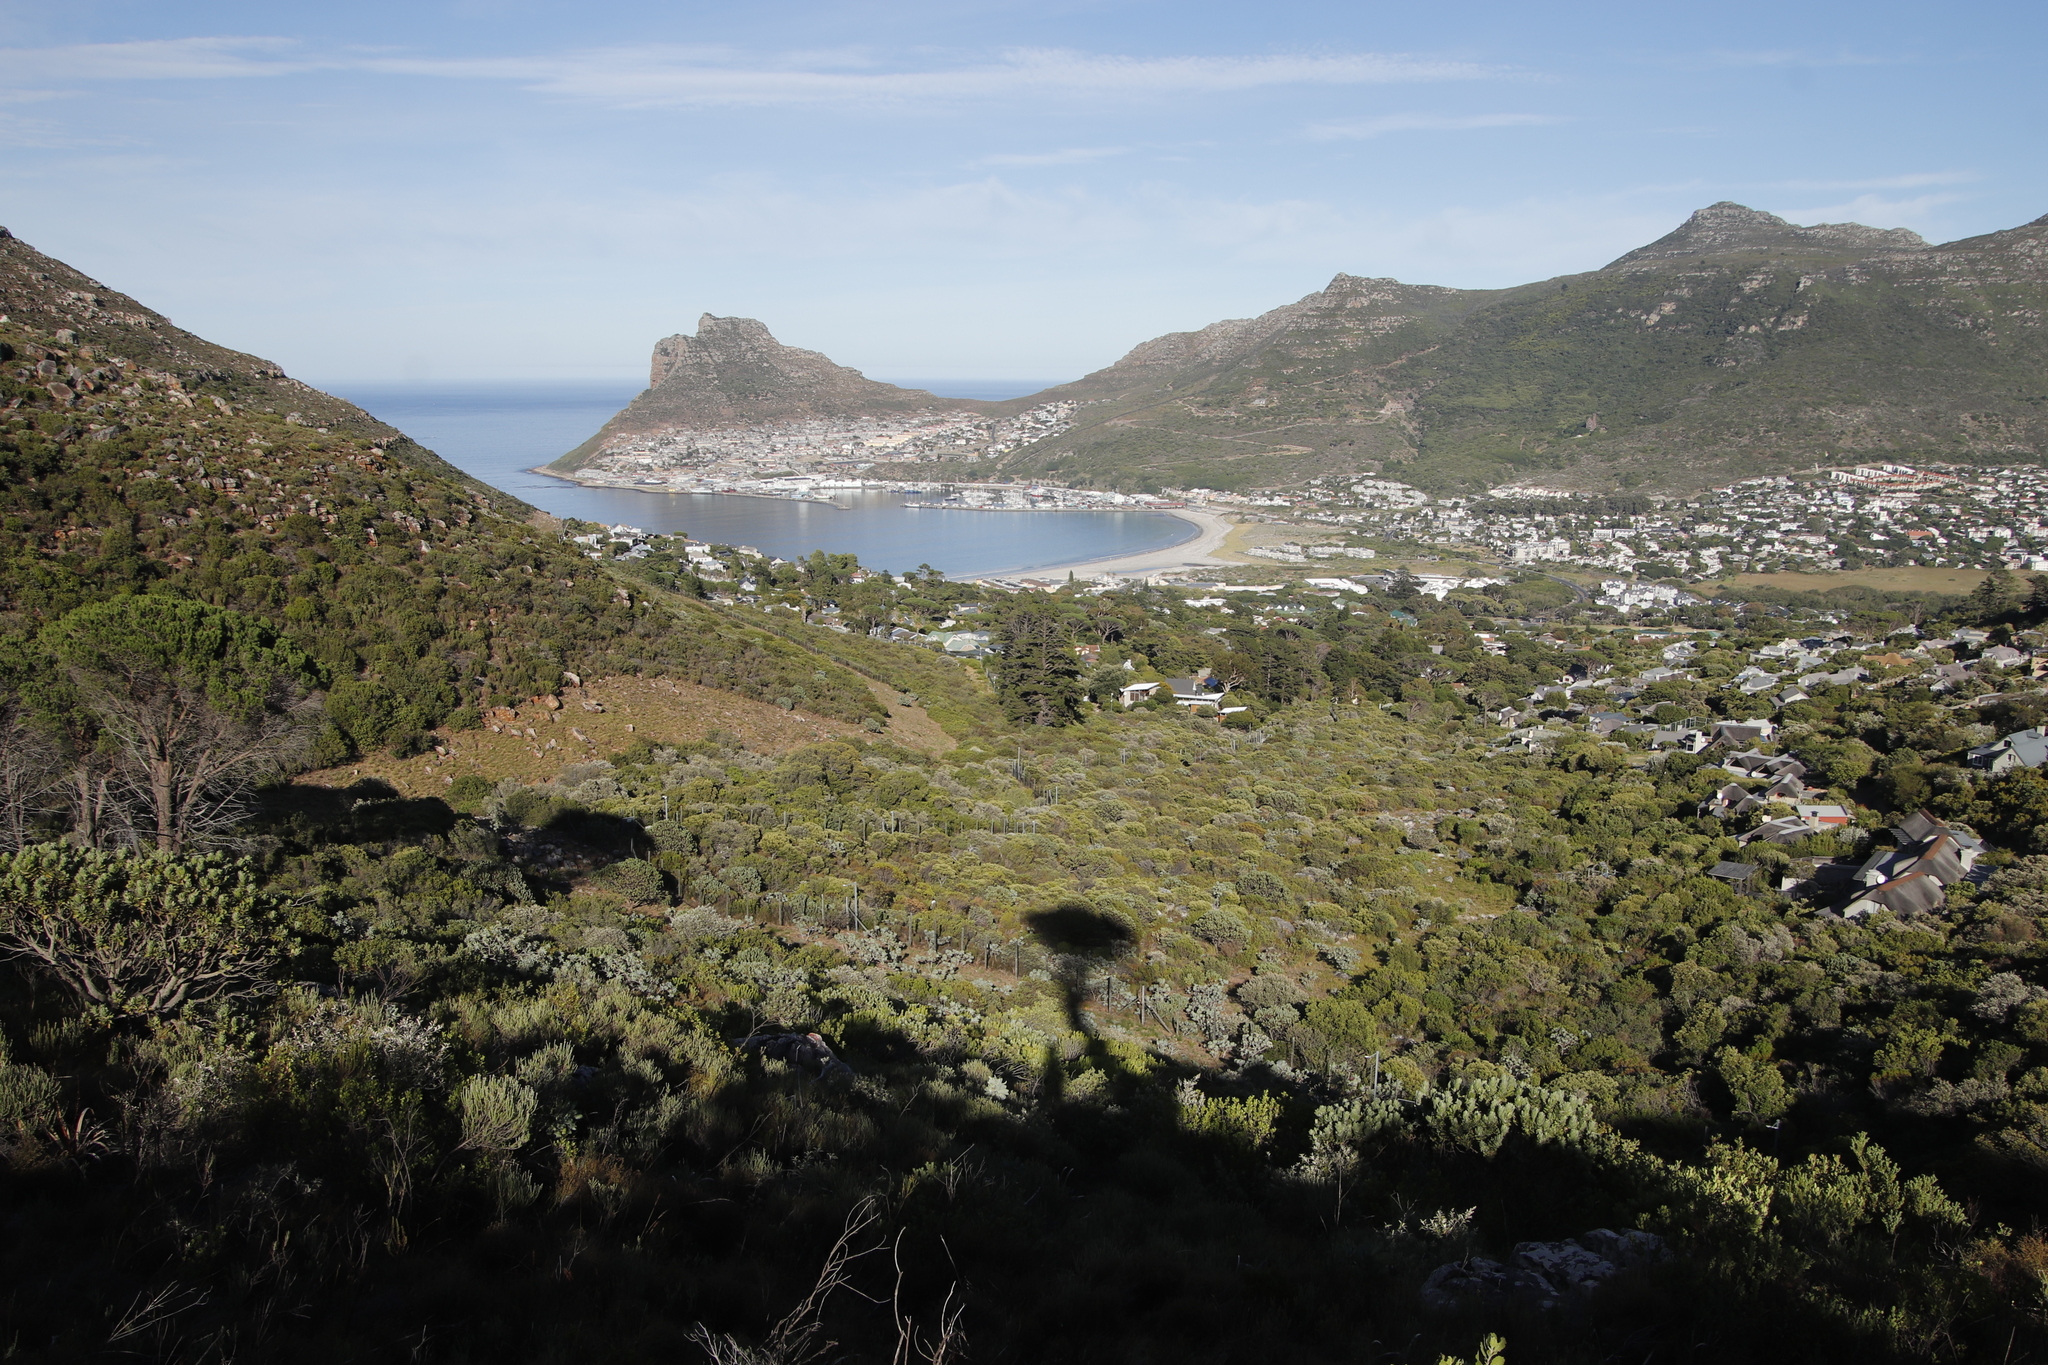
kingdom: Plantae
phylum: Tracheophyta
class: Pinopsida
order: Pinales
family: Pinaceae
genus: Pinus
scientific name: Pinus radiata
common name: Monterey pine
